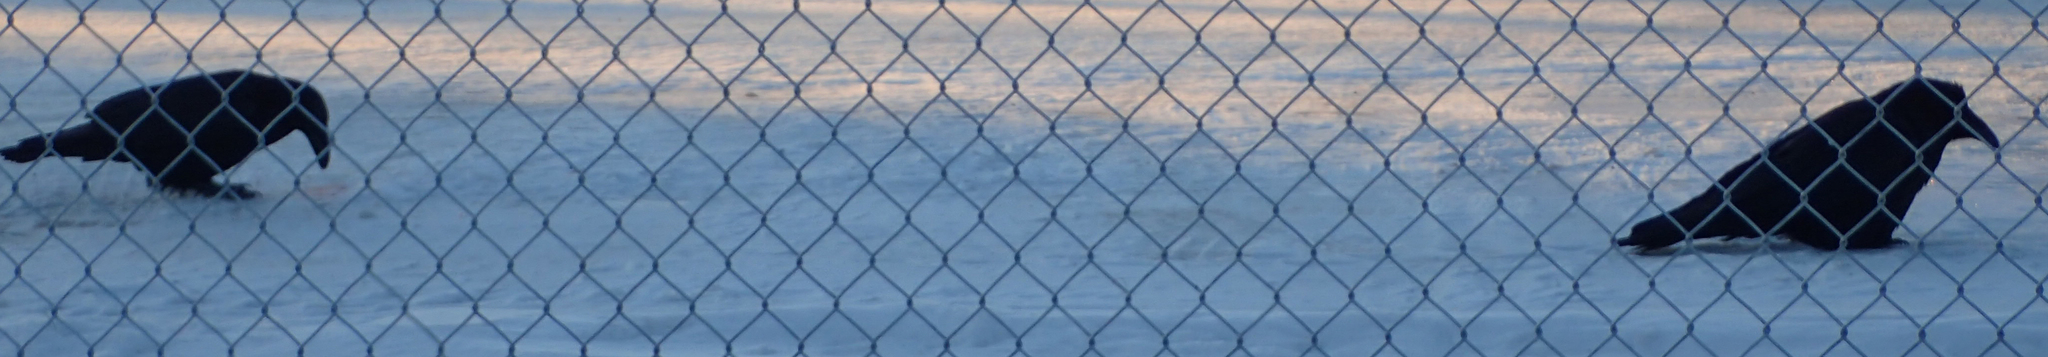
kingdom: Animalia
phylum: Chordata
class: Aves
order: Passeriformes
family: Corvidae
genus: Corvus
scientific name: Corvus corax
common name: Common raven
